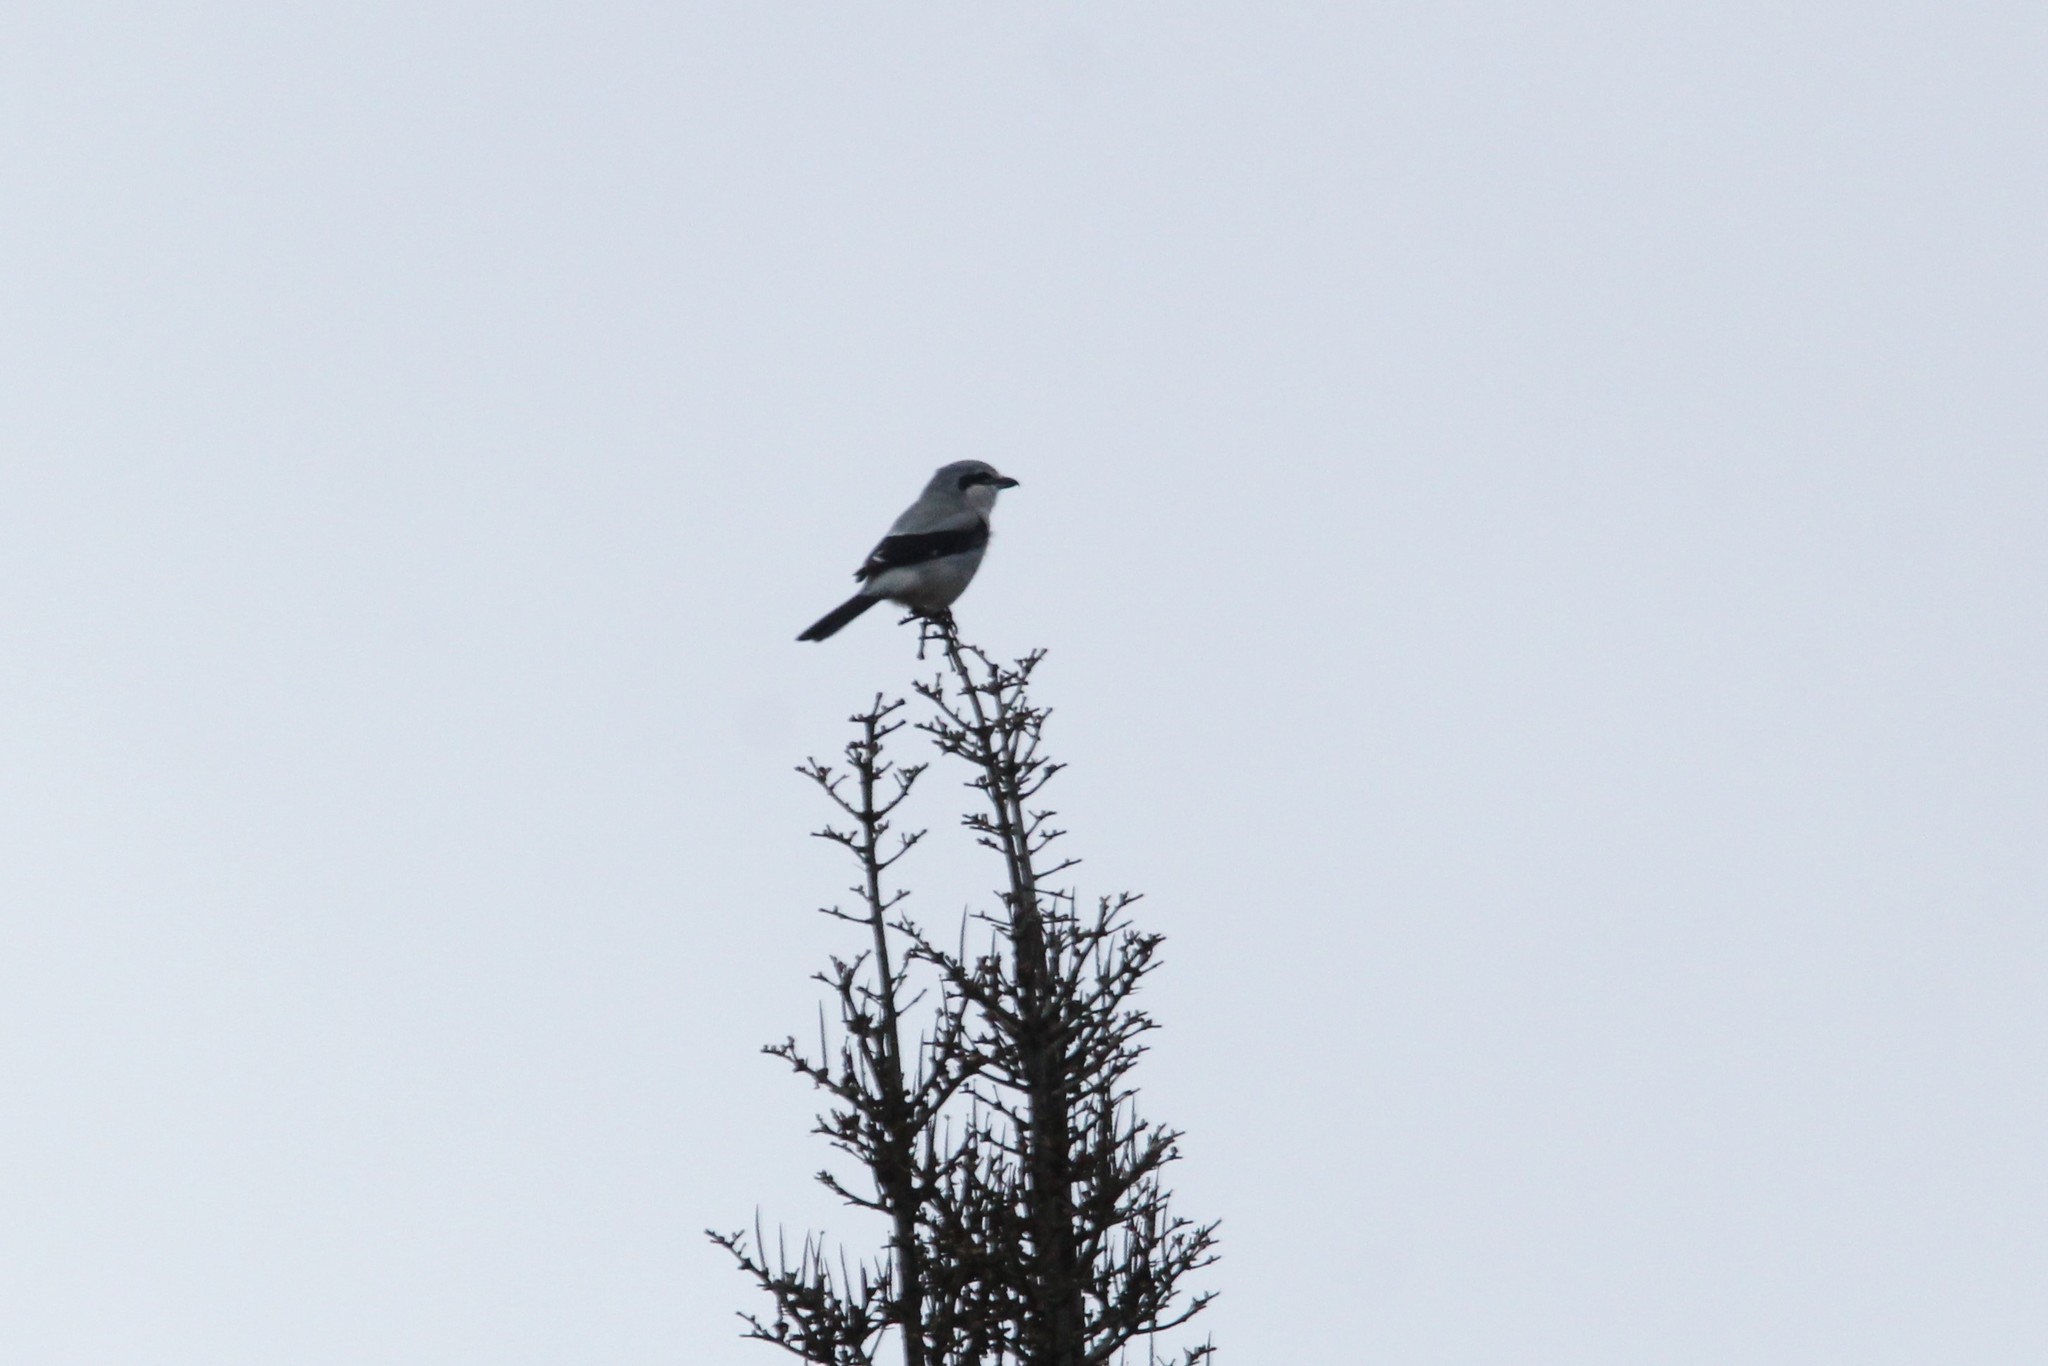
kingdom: Animalia
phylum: Chordata
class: Aves
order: Passeriformes
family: Laniidae
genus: Lanius
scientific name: Lanius borealis
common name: Northern shrike
